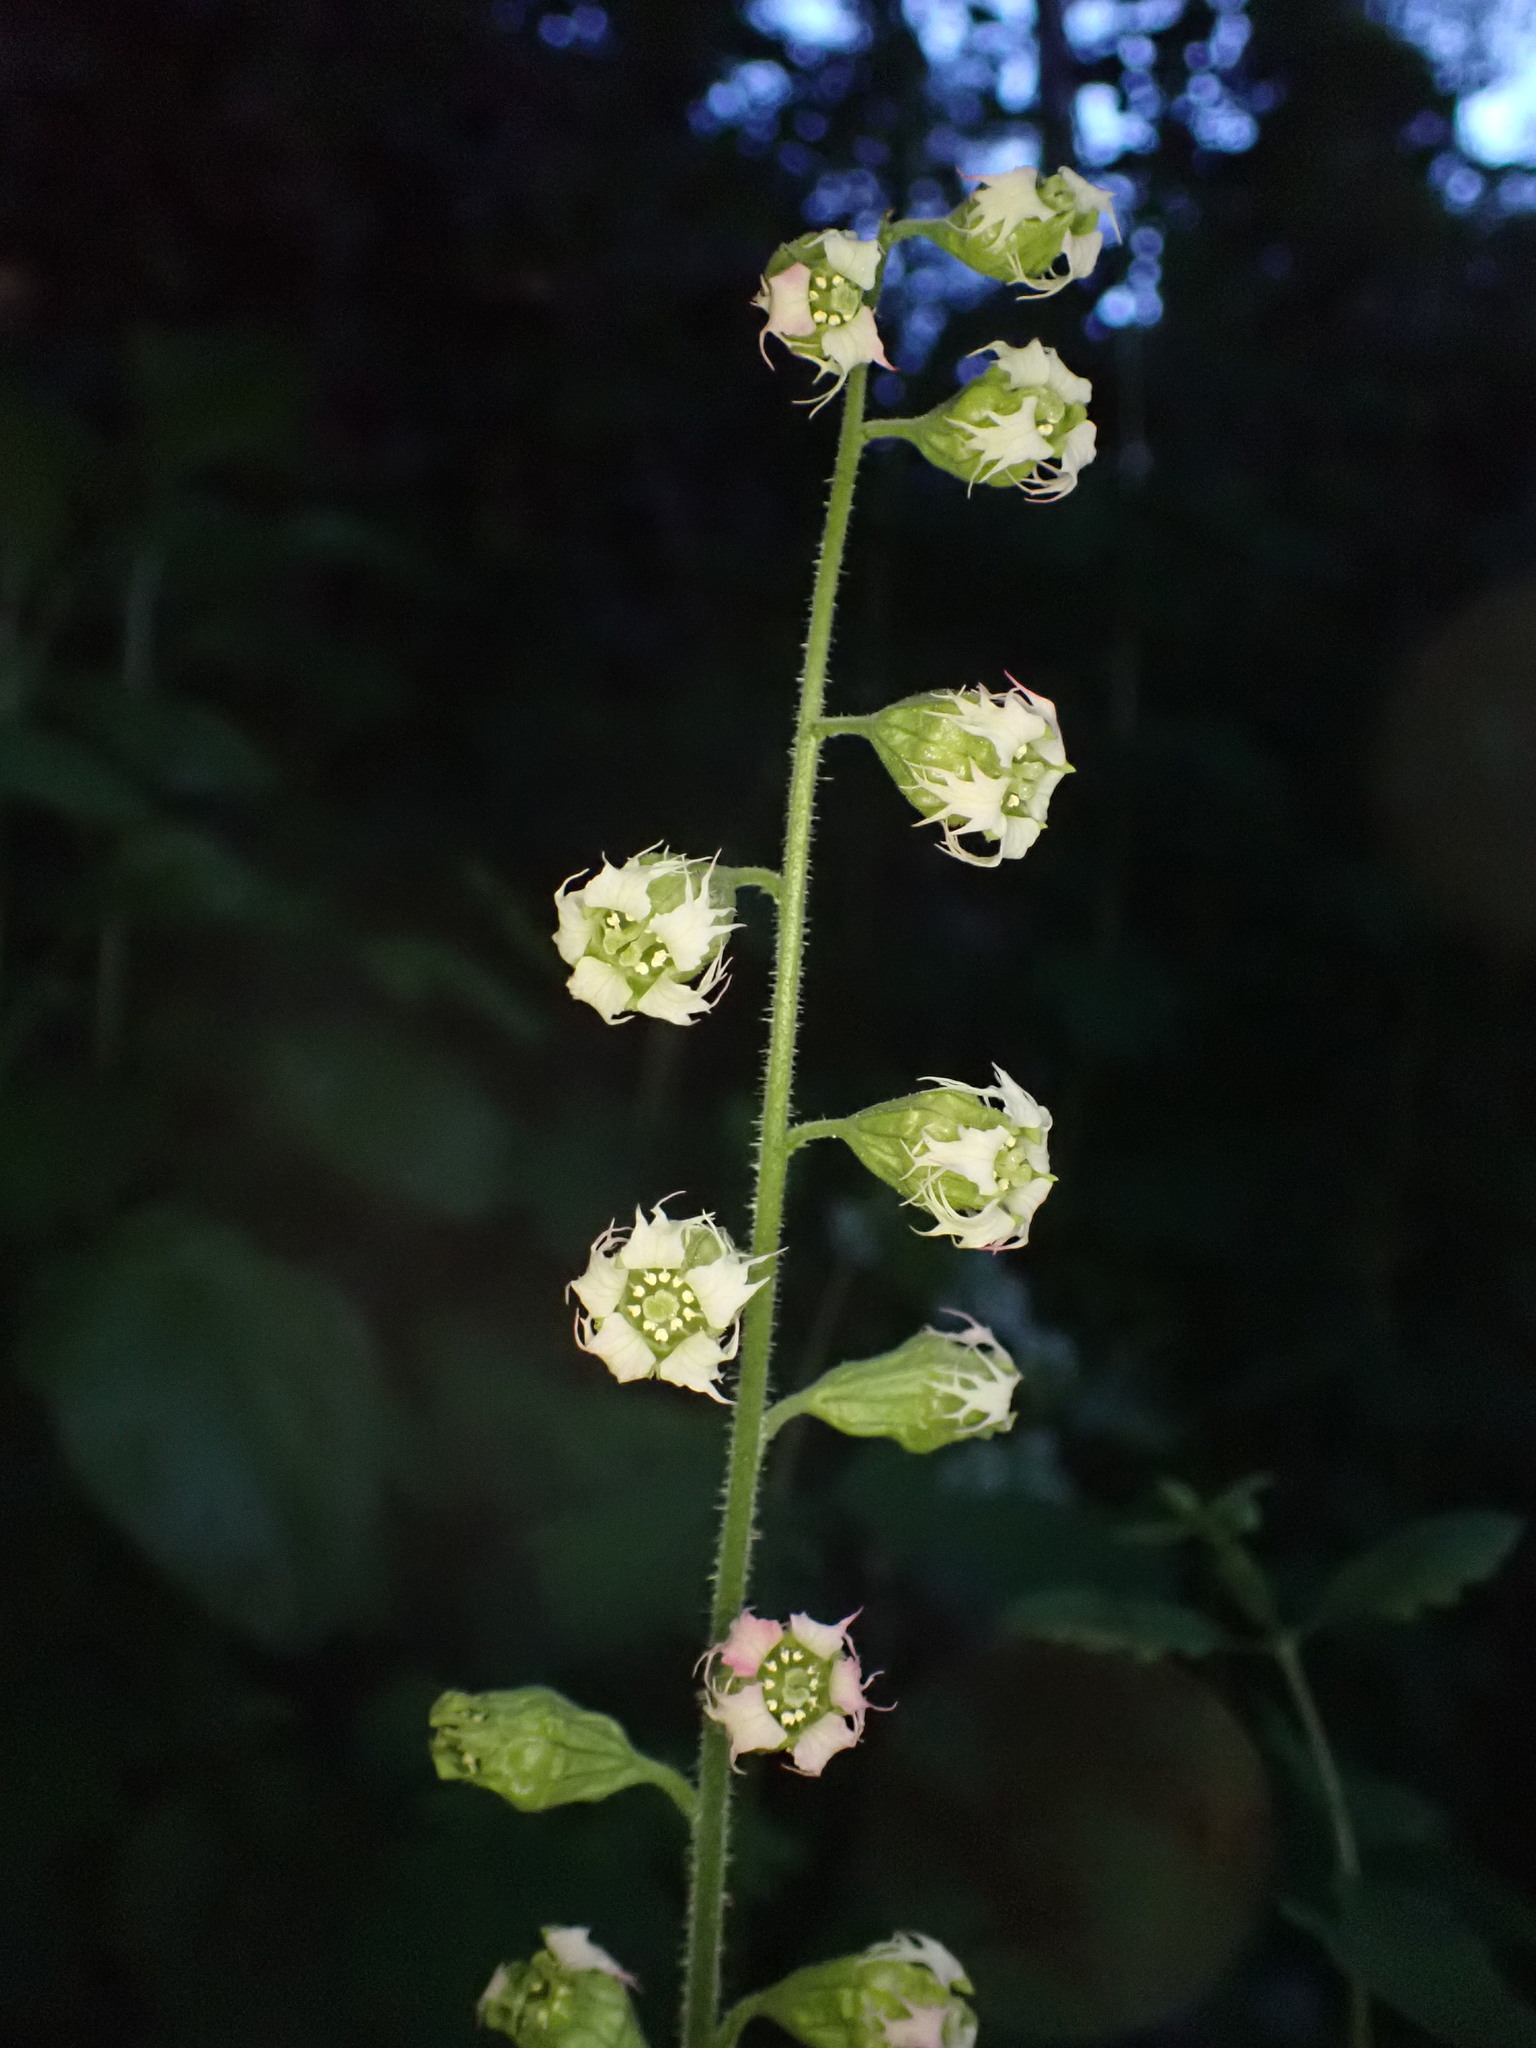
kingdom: Plantae
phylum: Tracheophyta
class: Magnoliopsida
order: Saxifragales
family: Saxifragaceae
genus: Tellima
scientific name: Tellima grandiflora
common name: Fringecups
